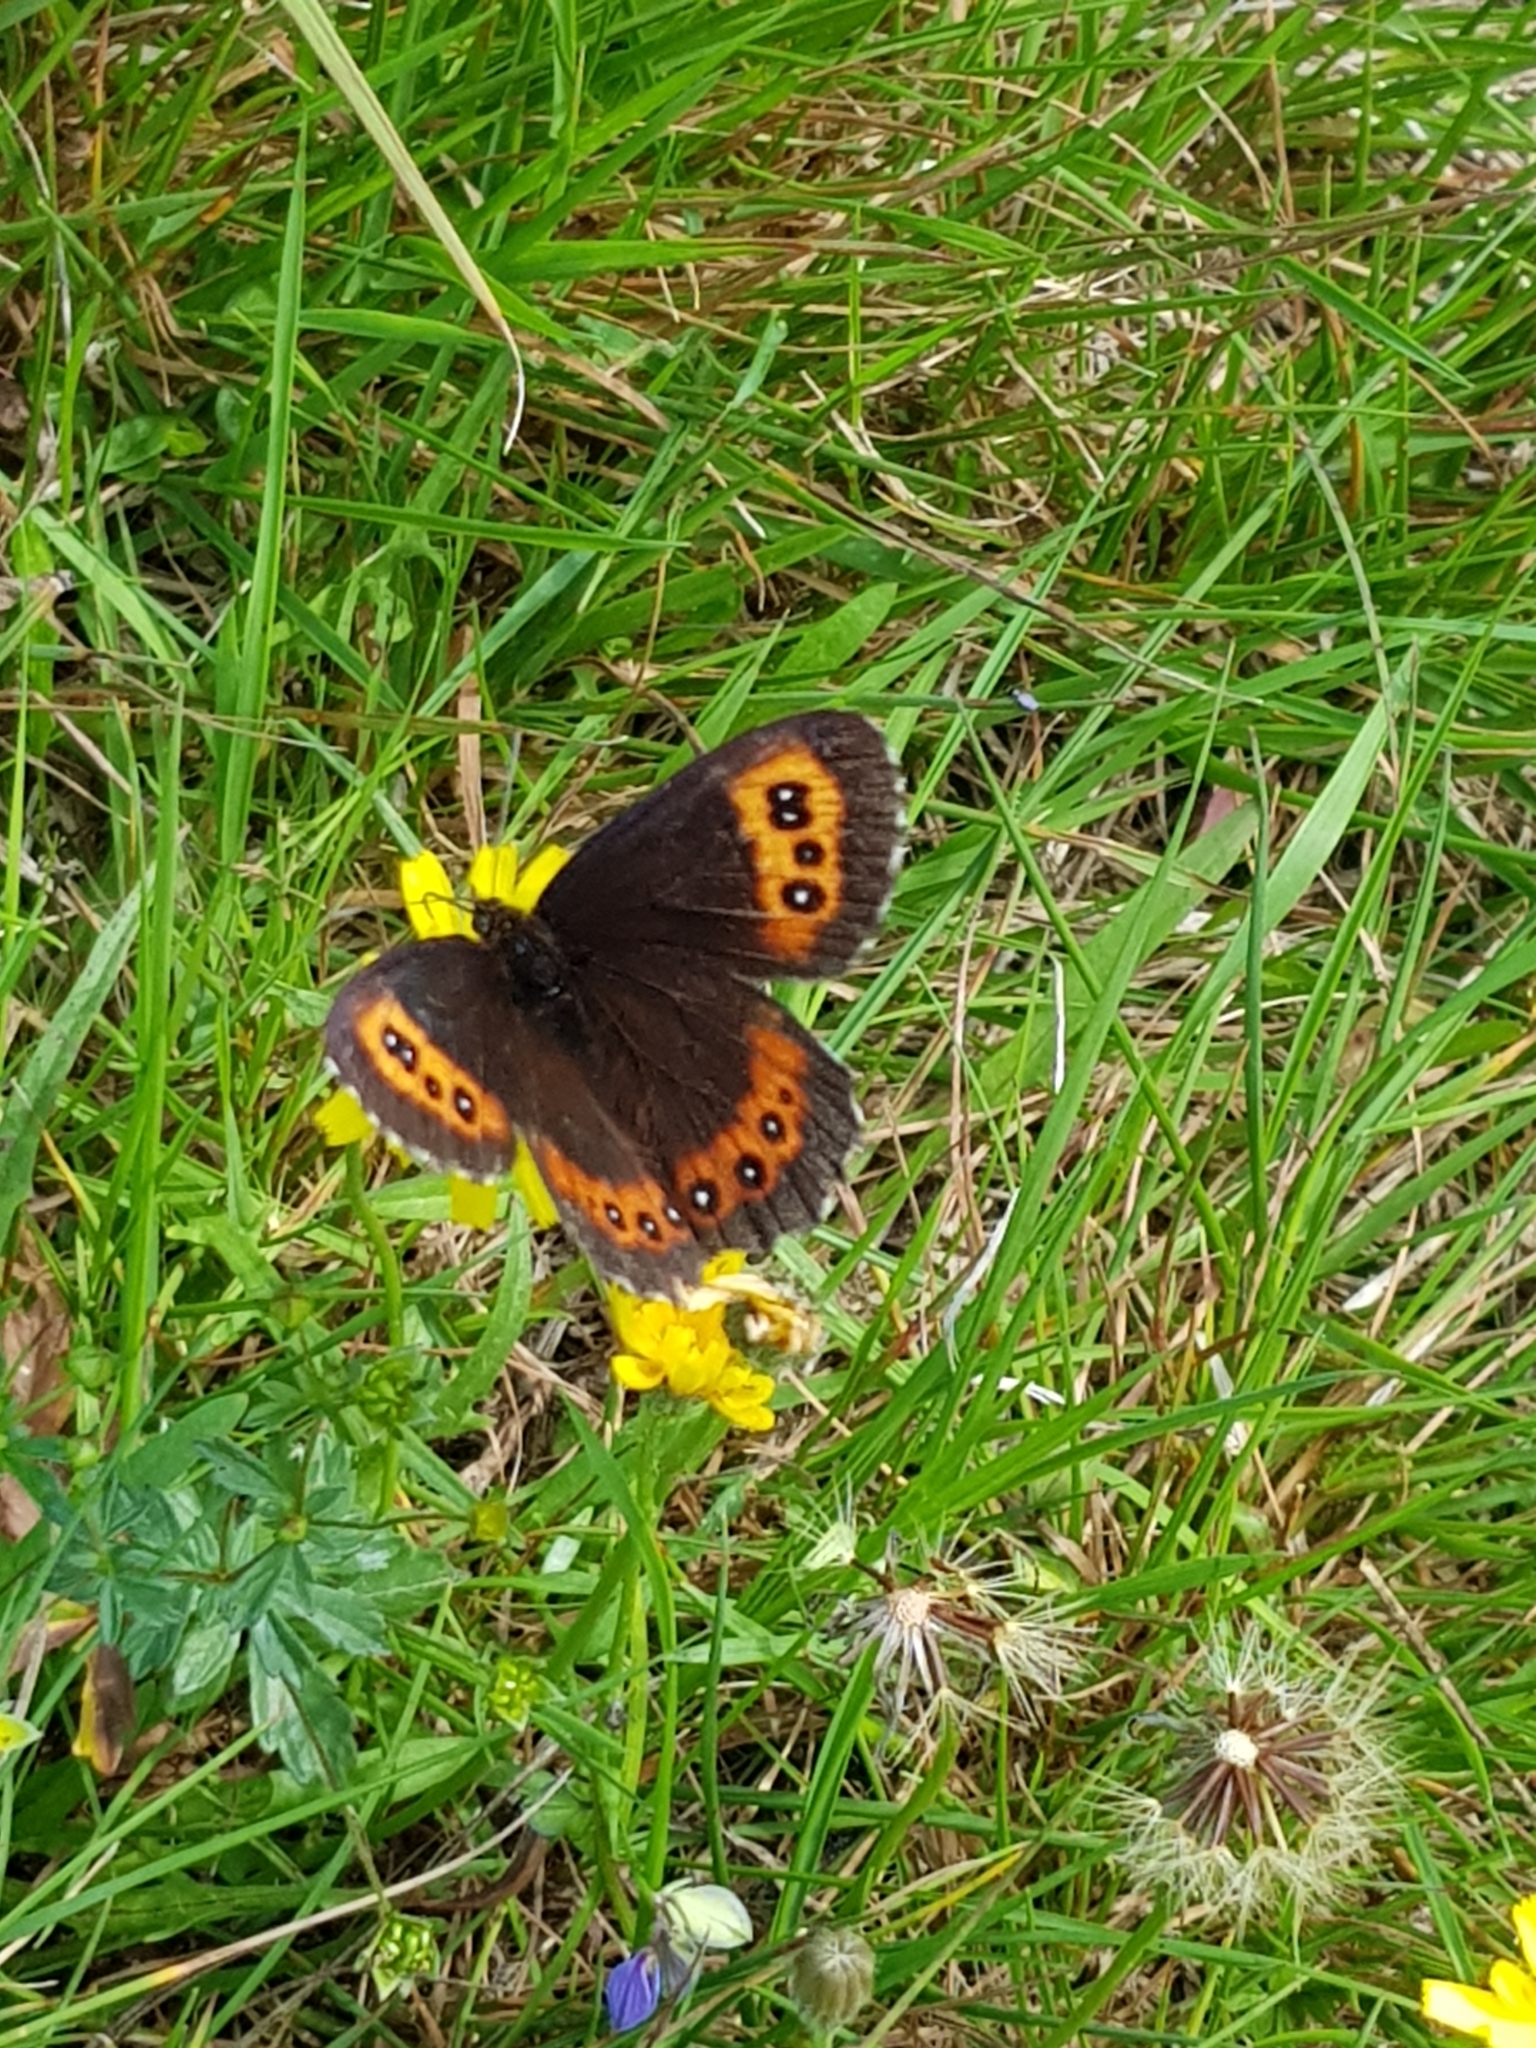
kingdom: Animalia
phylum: Arthropoda
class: Insecta
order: Lepidoptera
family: Nymphalidae
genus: Erebia
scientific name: Erebia ligea
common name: Arran brown
